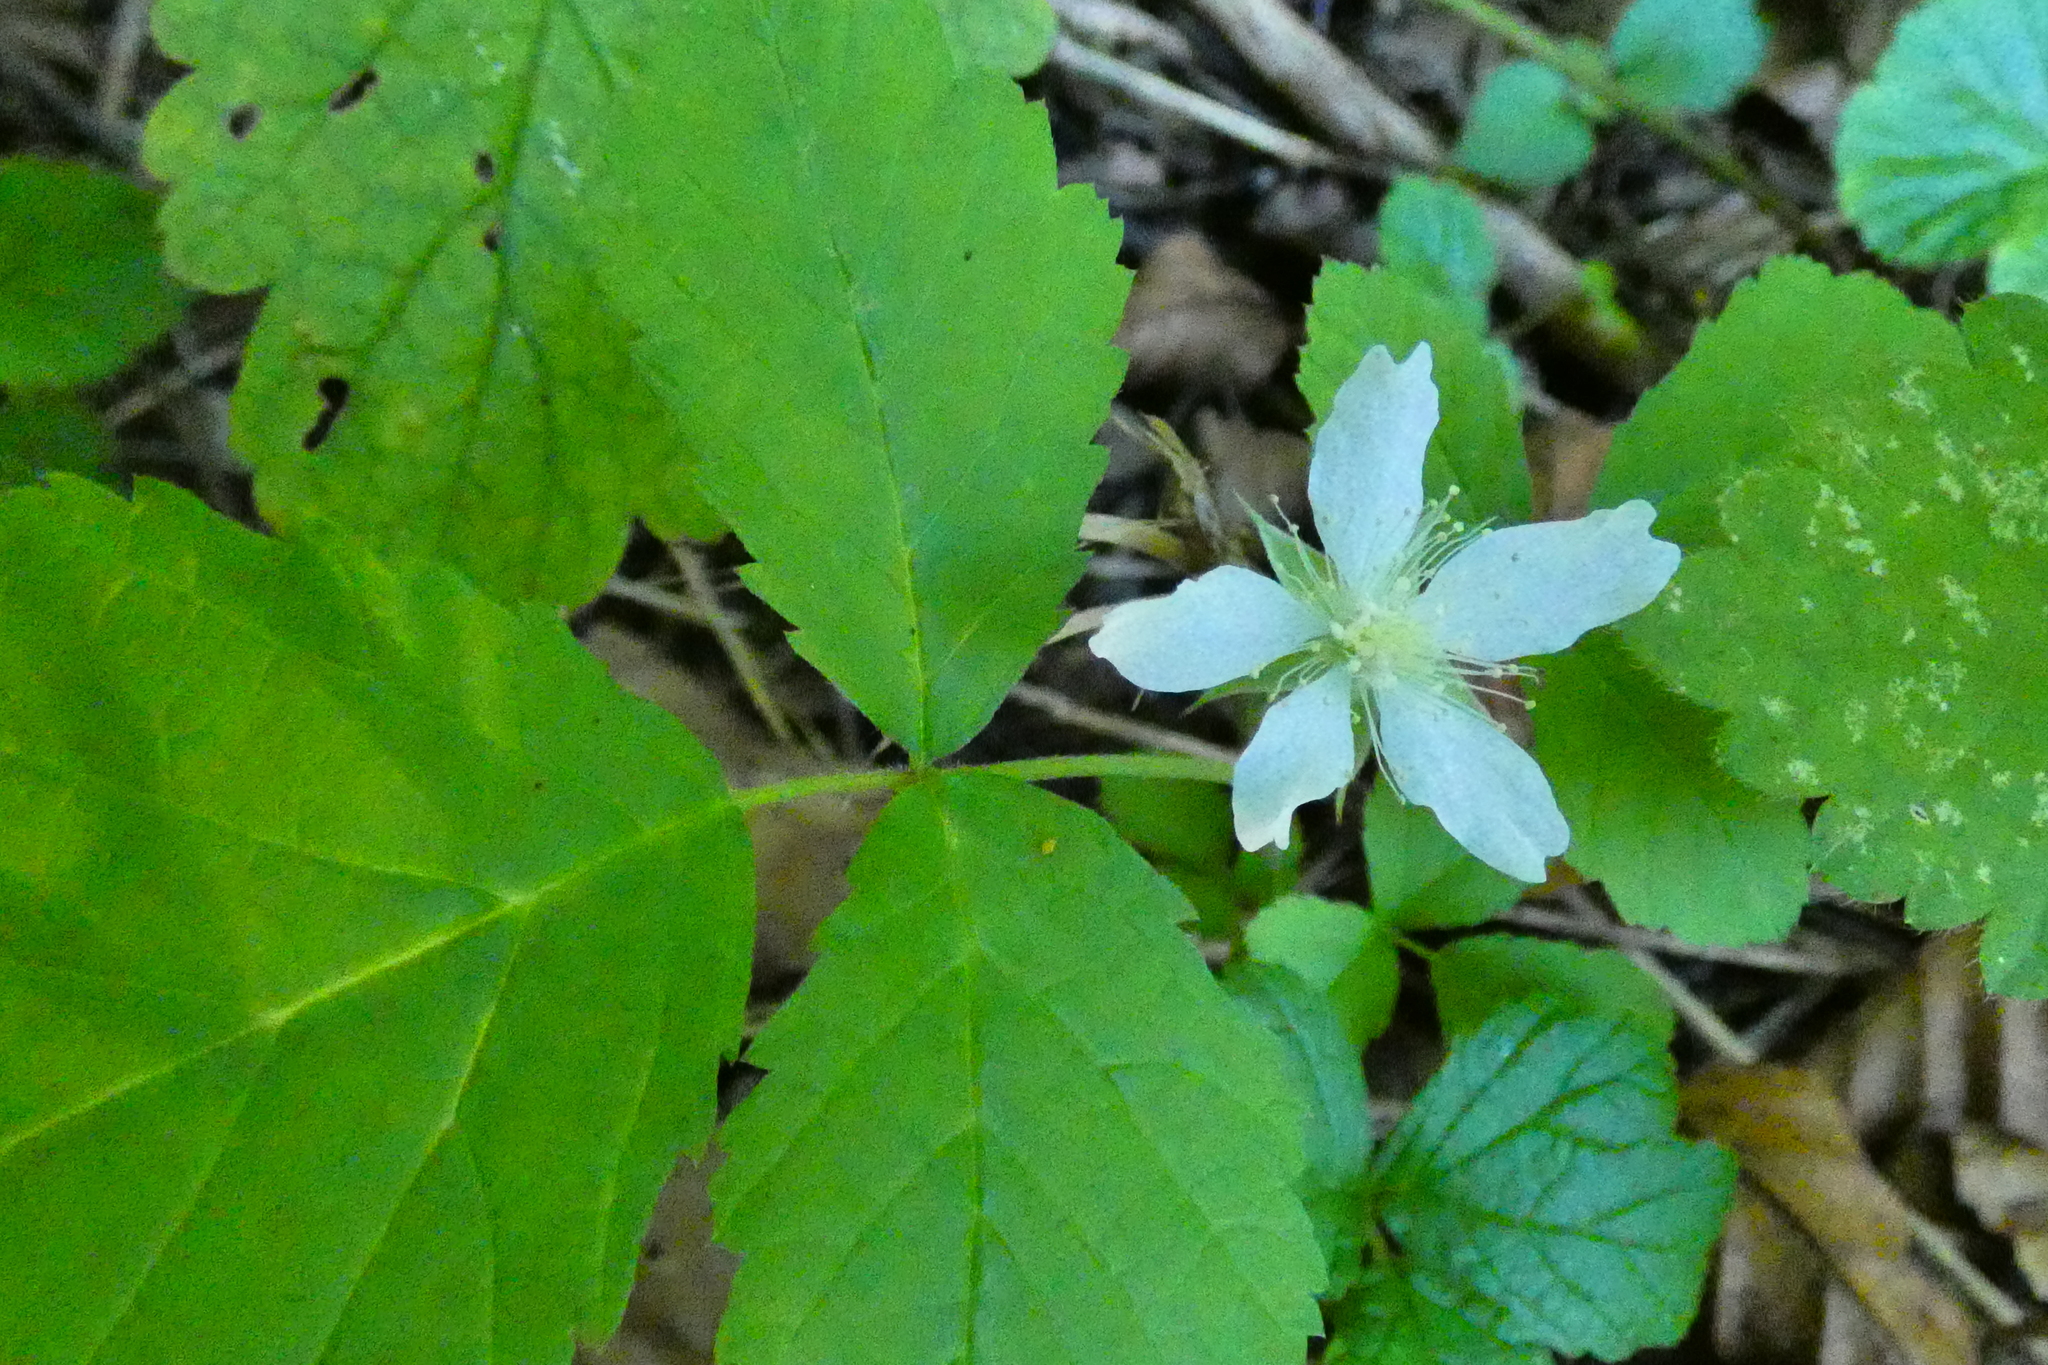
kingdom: Plantae
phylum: Tracheophyta
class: Magnoliopsida
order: Rosales
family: Rosaceae
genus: Rubus
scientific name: Rubus caesius
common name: Dewberry
